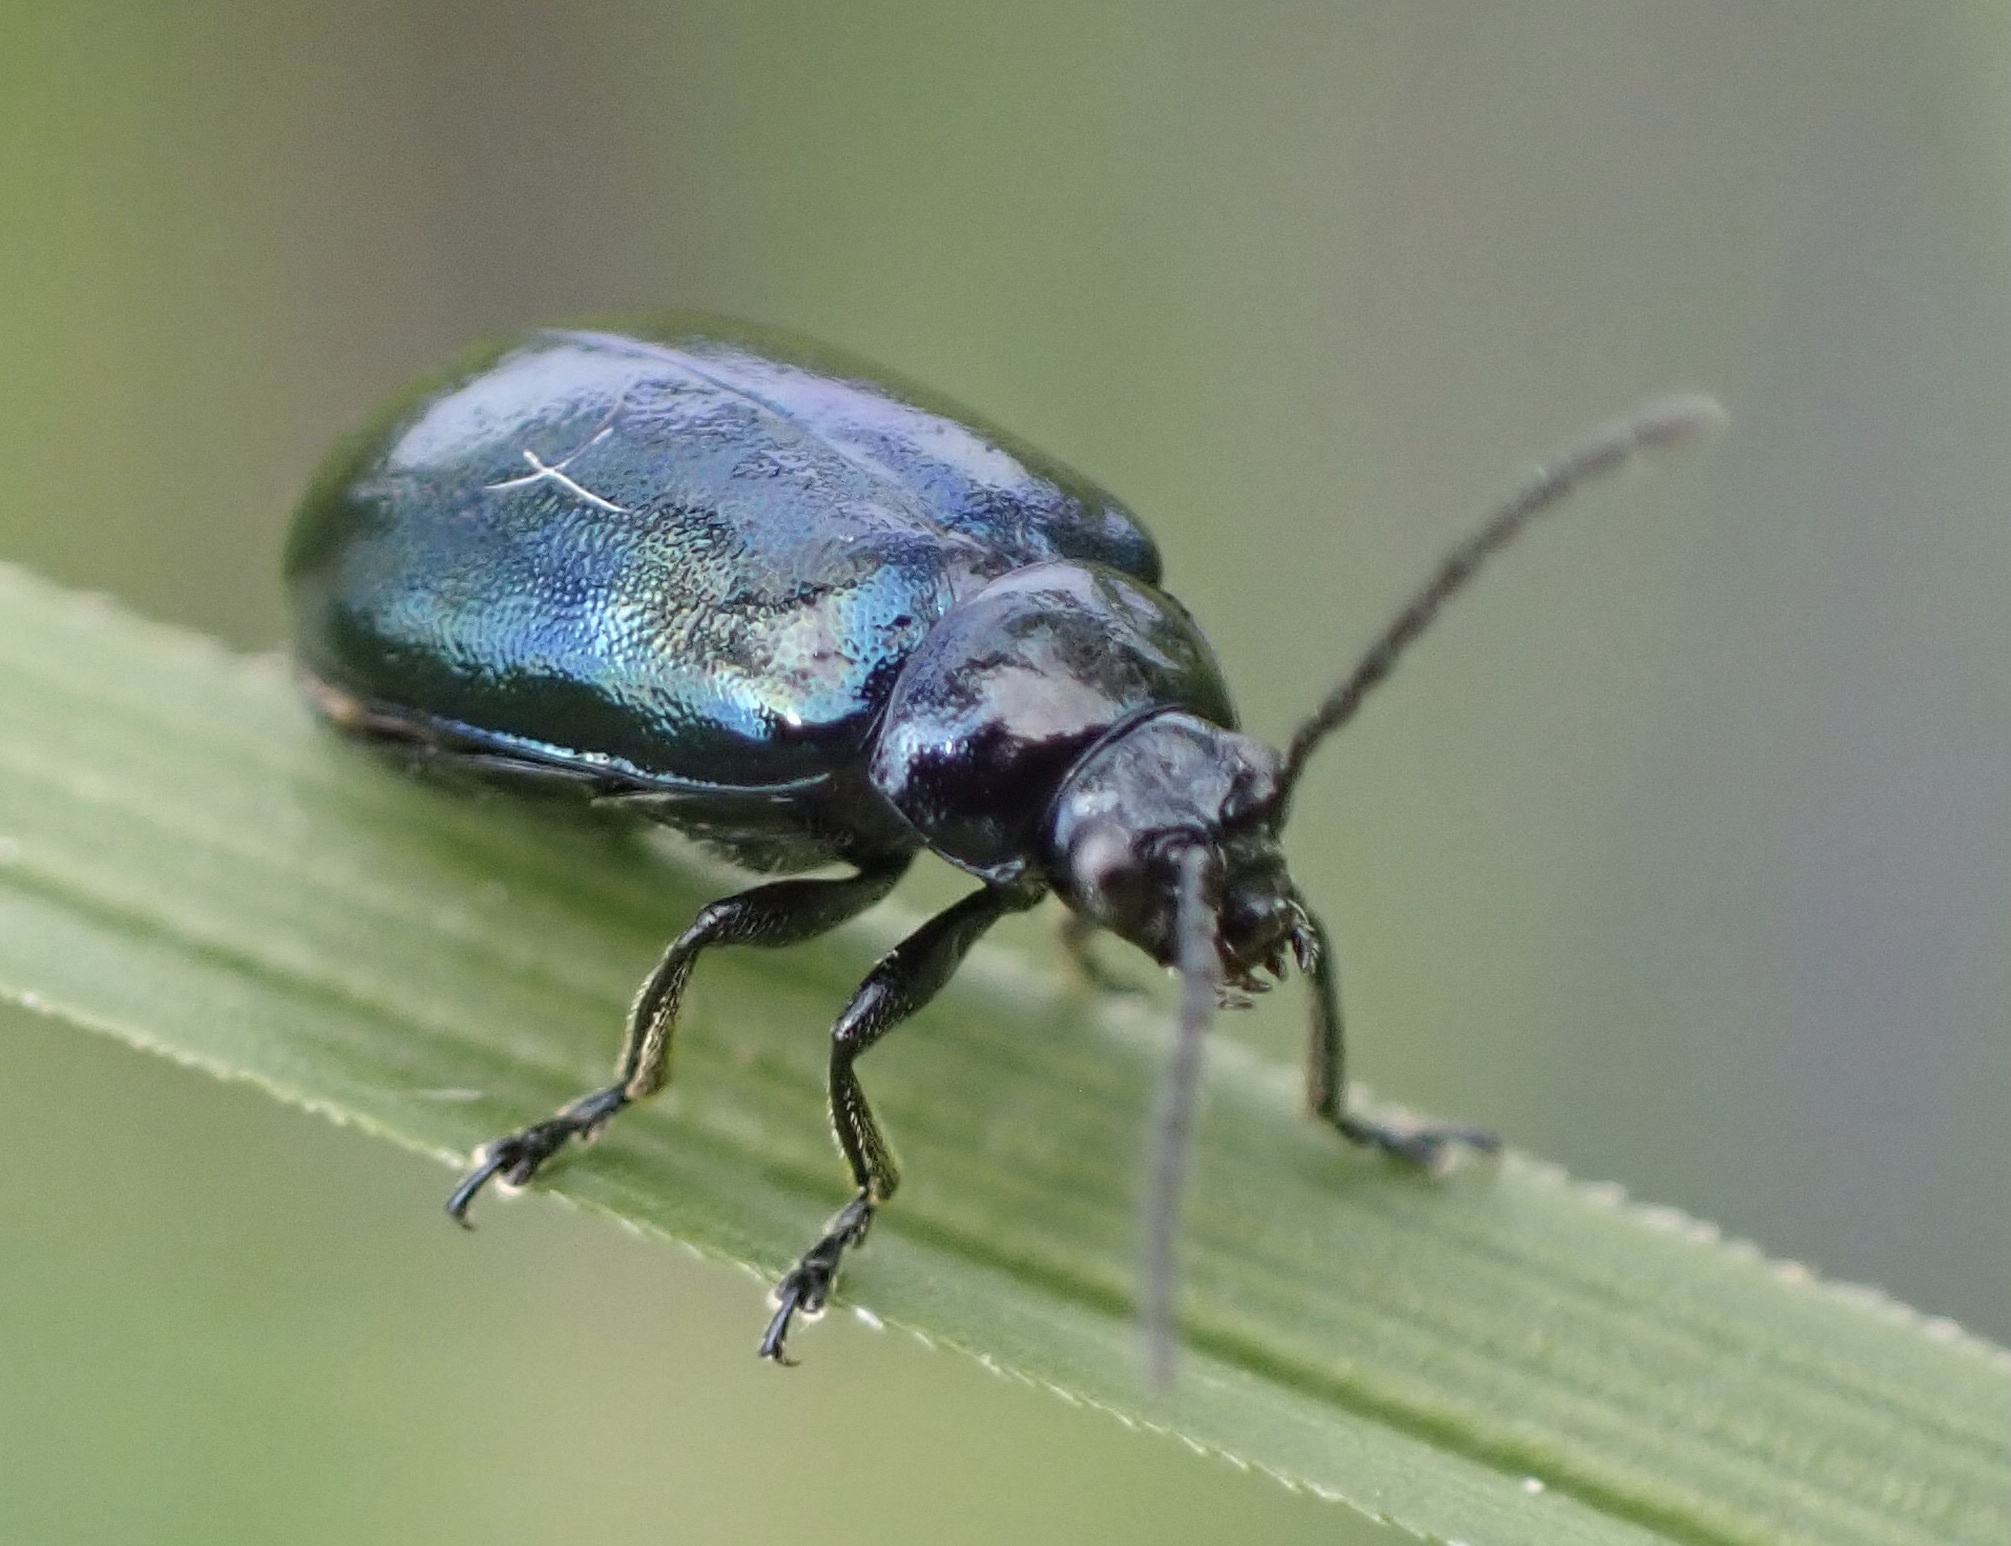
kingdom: Animalia
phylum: Arthropoda
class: Insecta
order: Coleoptera
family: Chrysomelidae
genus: Agelastica
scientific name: Agelastica alni
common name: Alder leaf beetle
